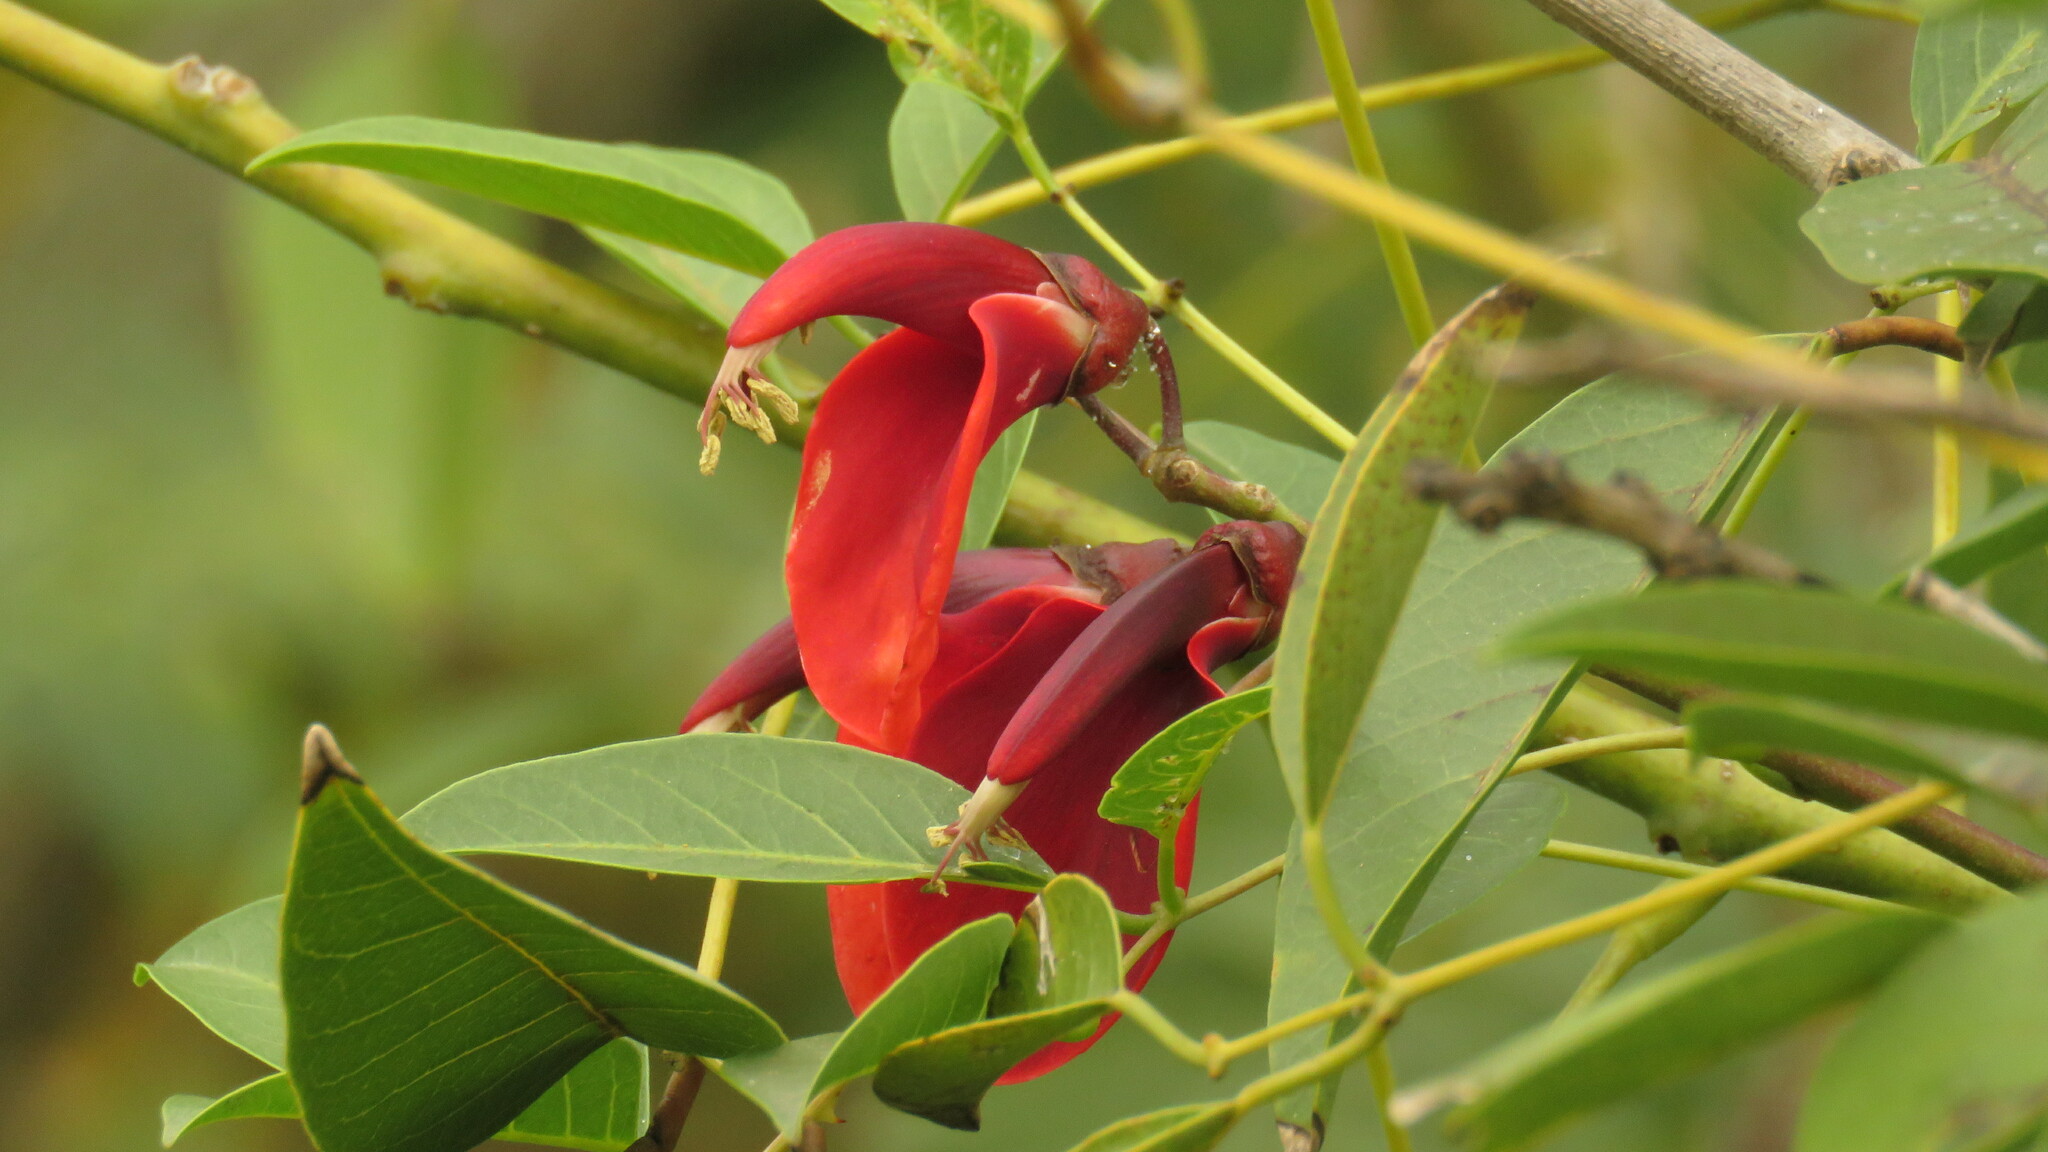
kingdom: Plantae
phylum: Tracheophyta
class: Magnoliopsida
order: Fabales
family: Fabaceae
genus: Erythrina
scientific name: Erythrina crista-galli
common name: Cockspur coral tree
